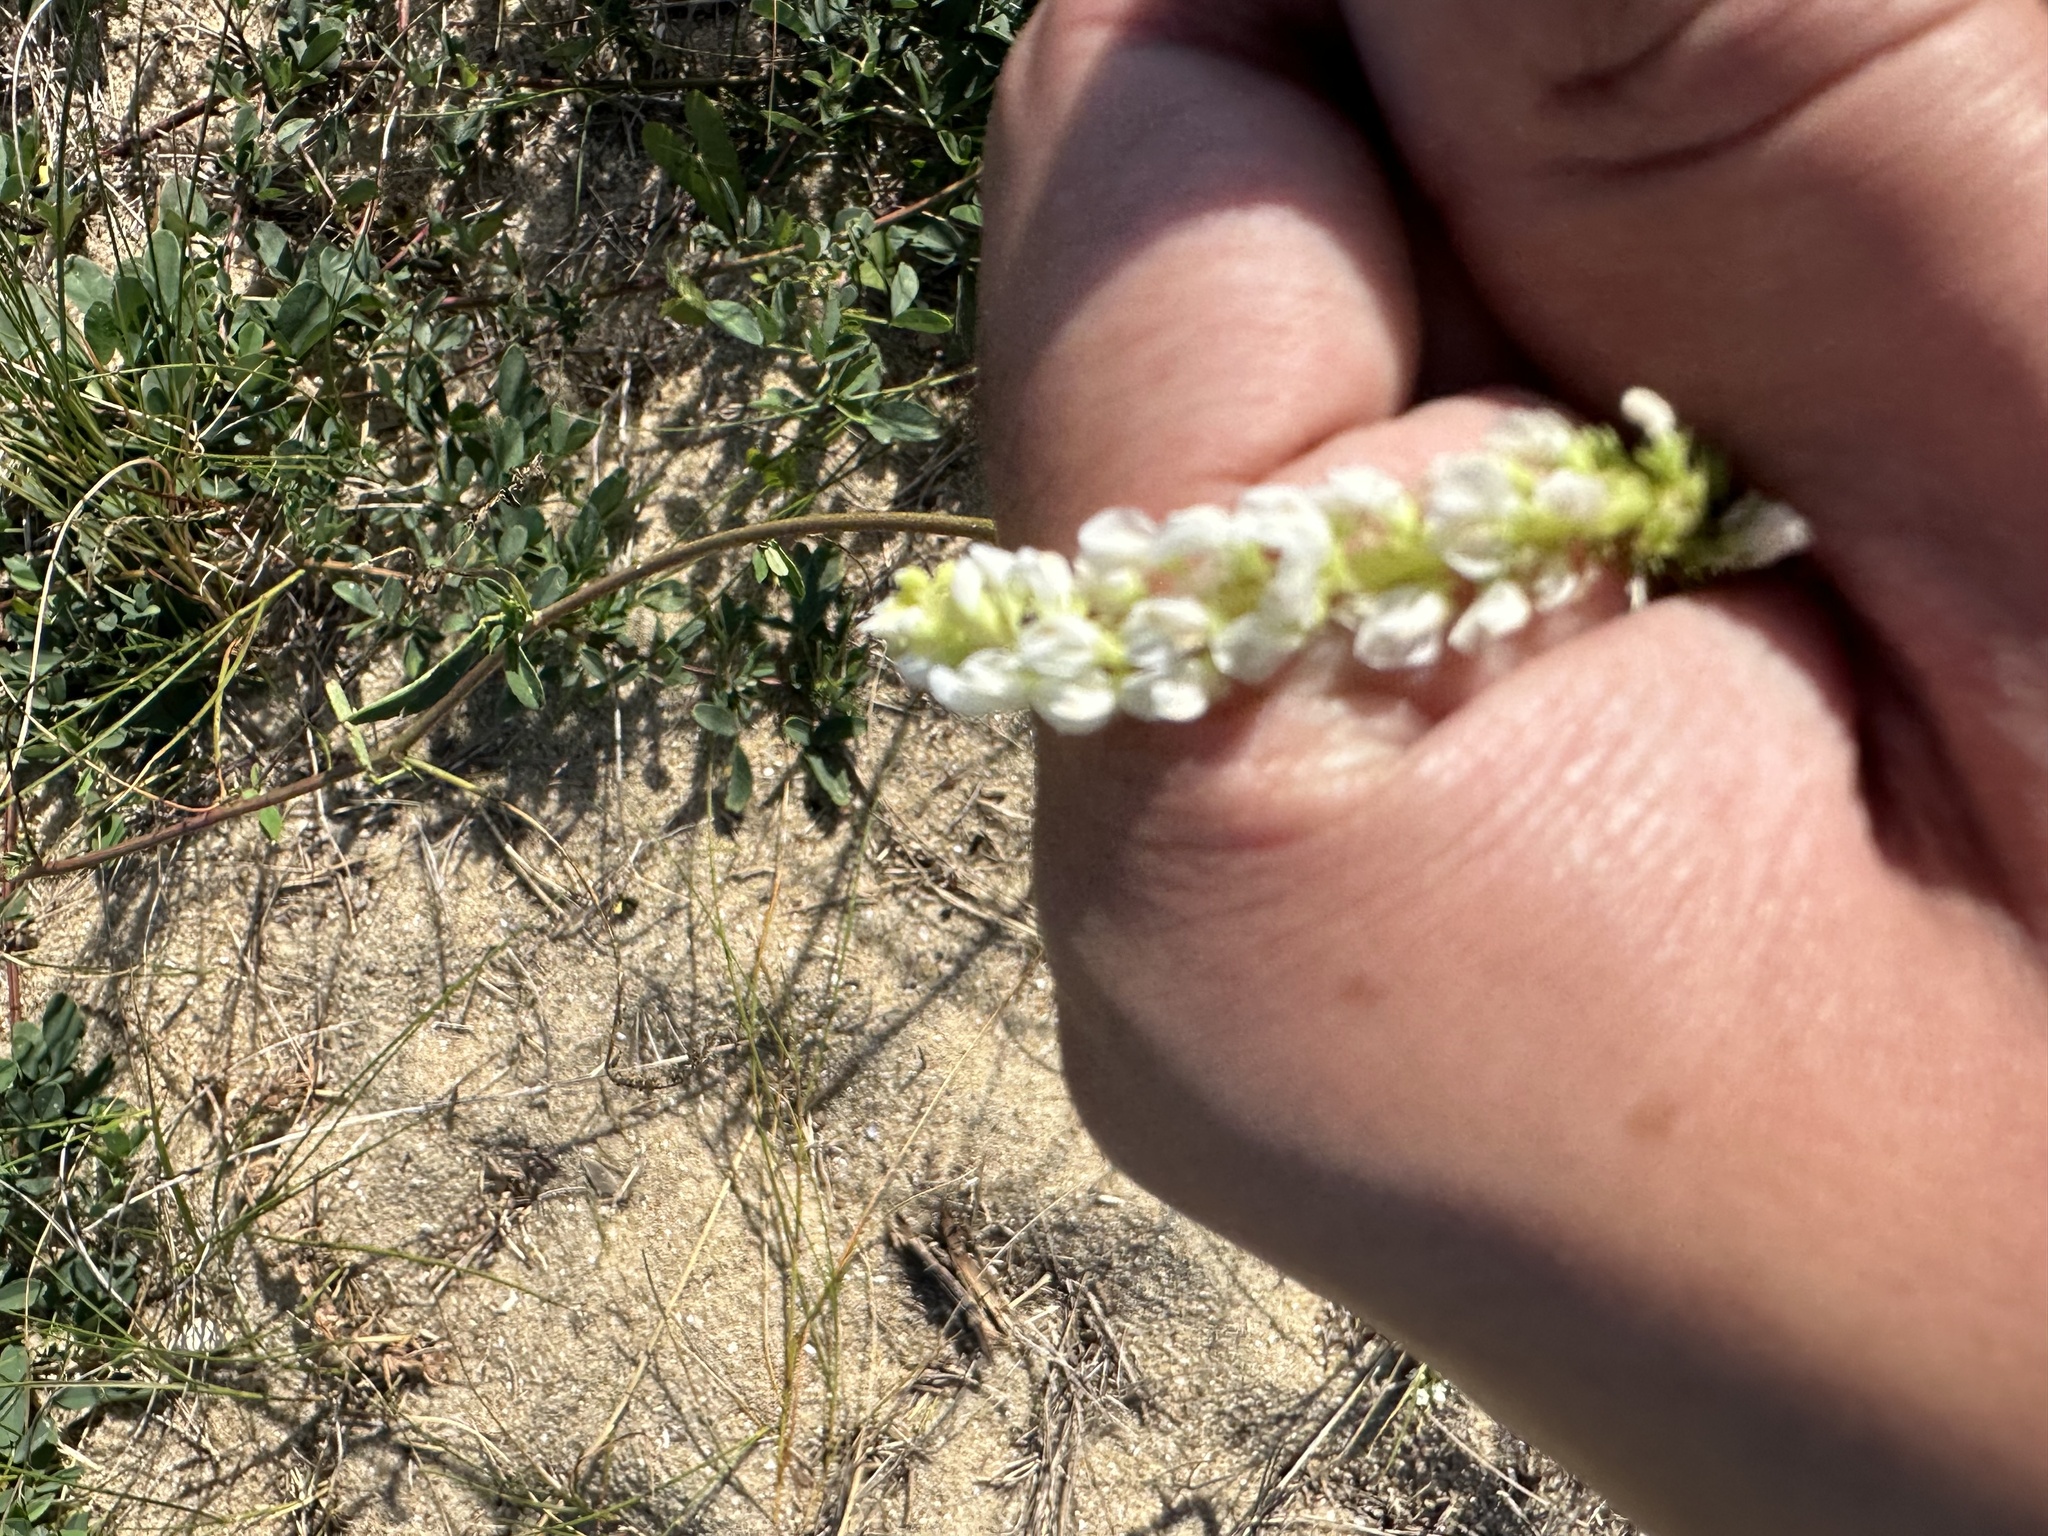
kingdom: Plantae
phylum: Tracheophyta
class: Magnoliopsida
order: Fabales
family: Fabaceae
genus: Melilotus
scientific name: Melilotus albus
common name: White melilot
